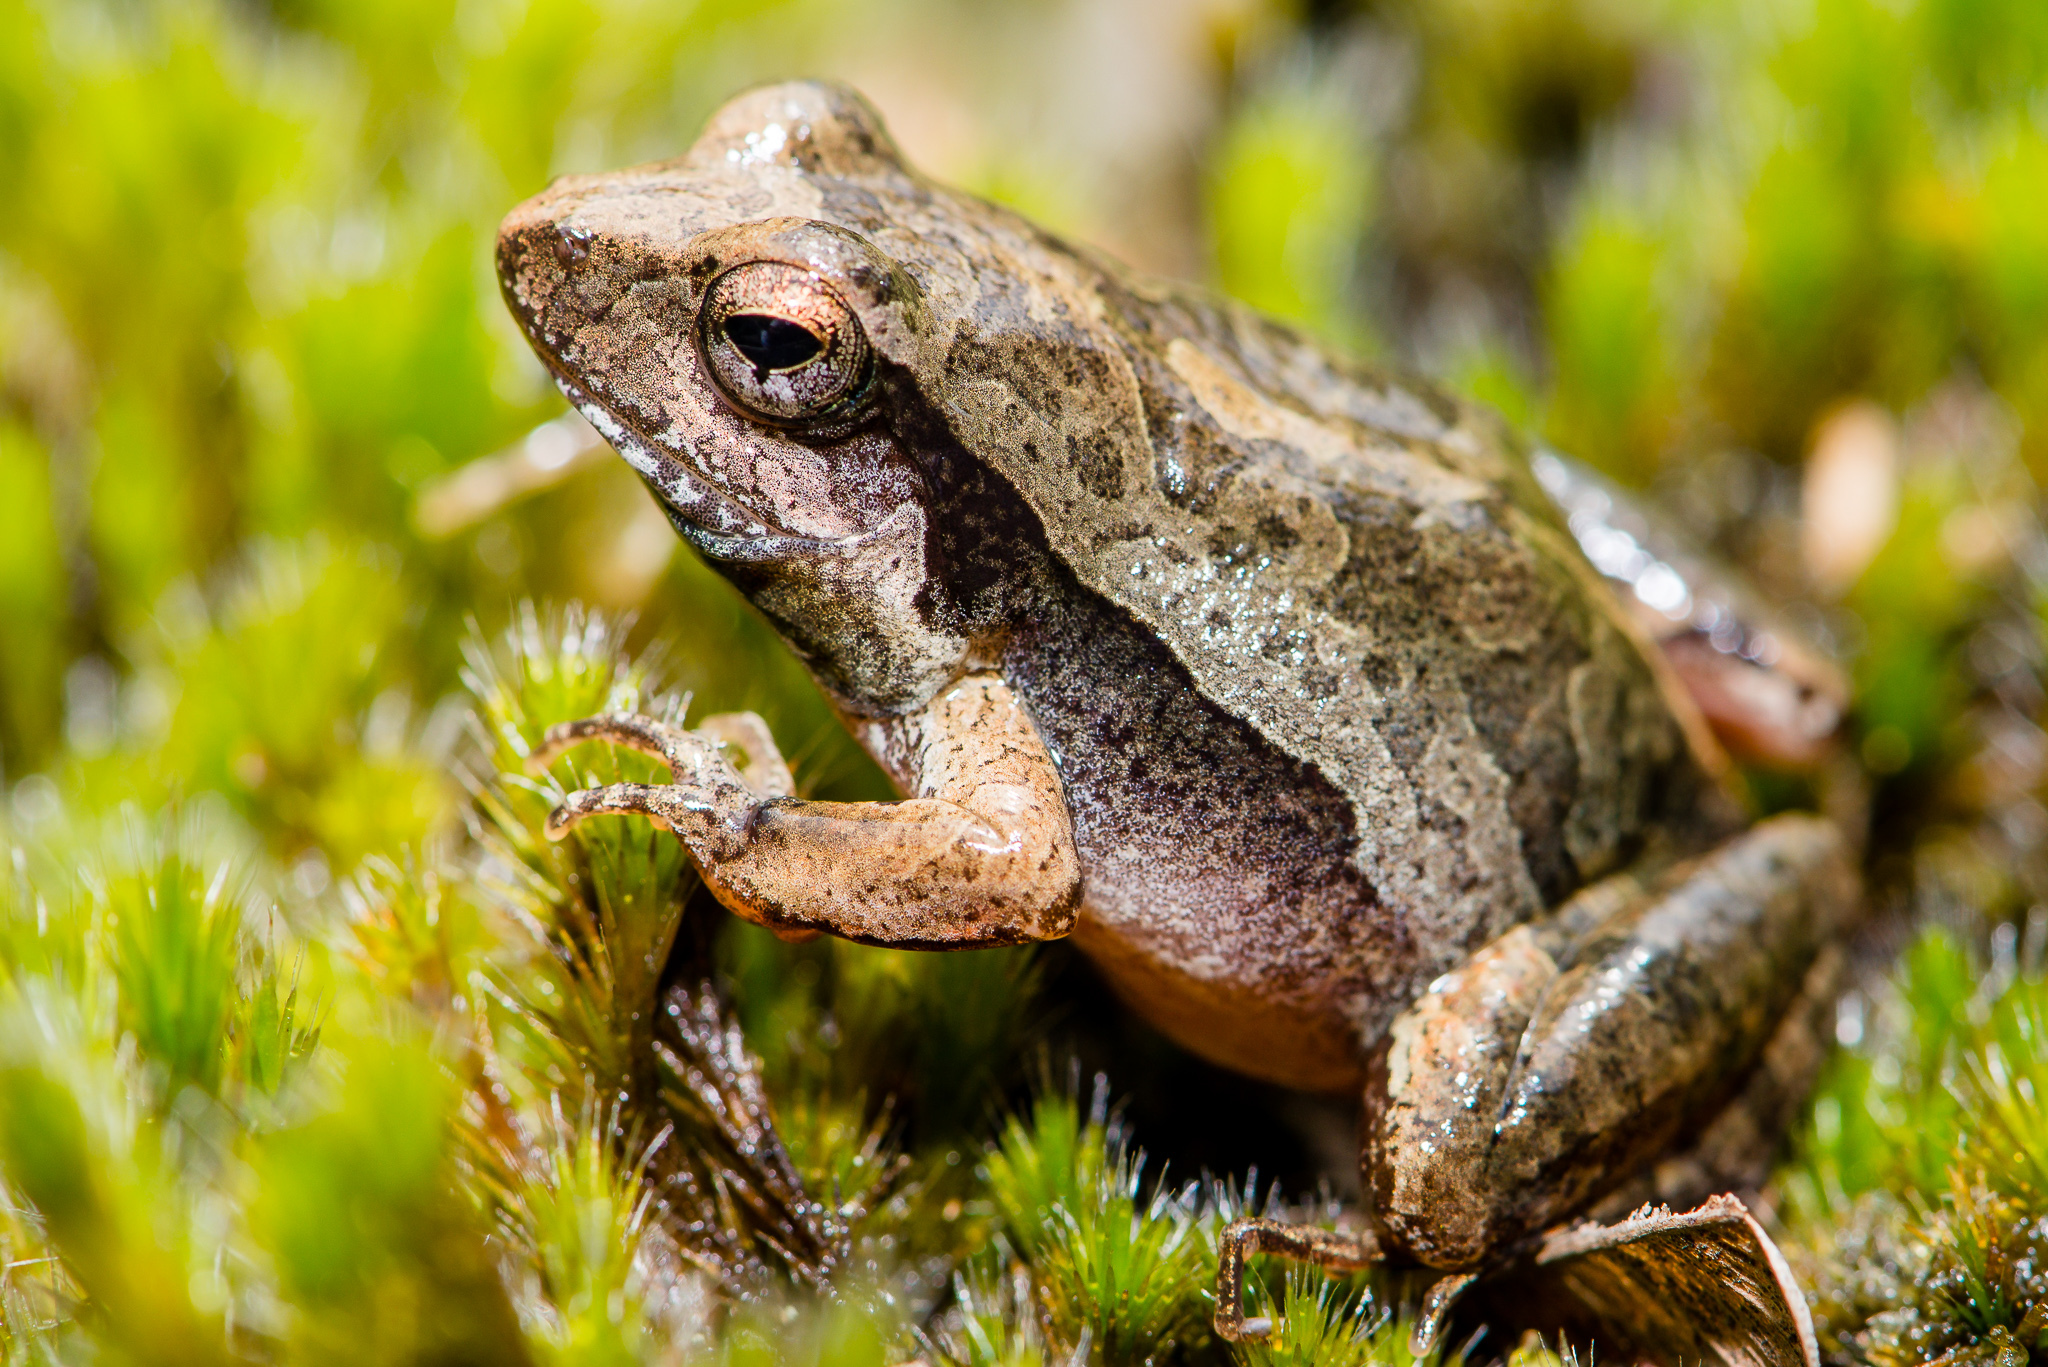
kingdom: Animalia
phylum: Chordata
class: Amphibia
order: Anura
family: Leptodactylidae
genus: Physalaemus
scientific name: Physalaemus cuvieri
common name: Barker frog
